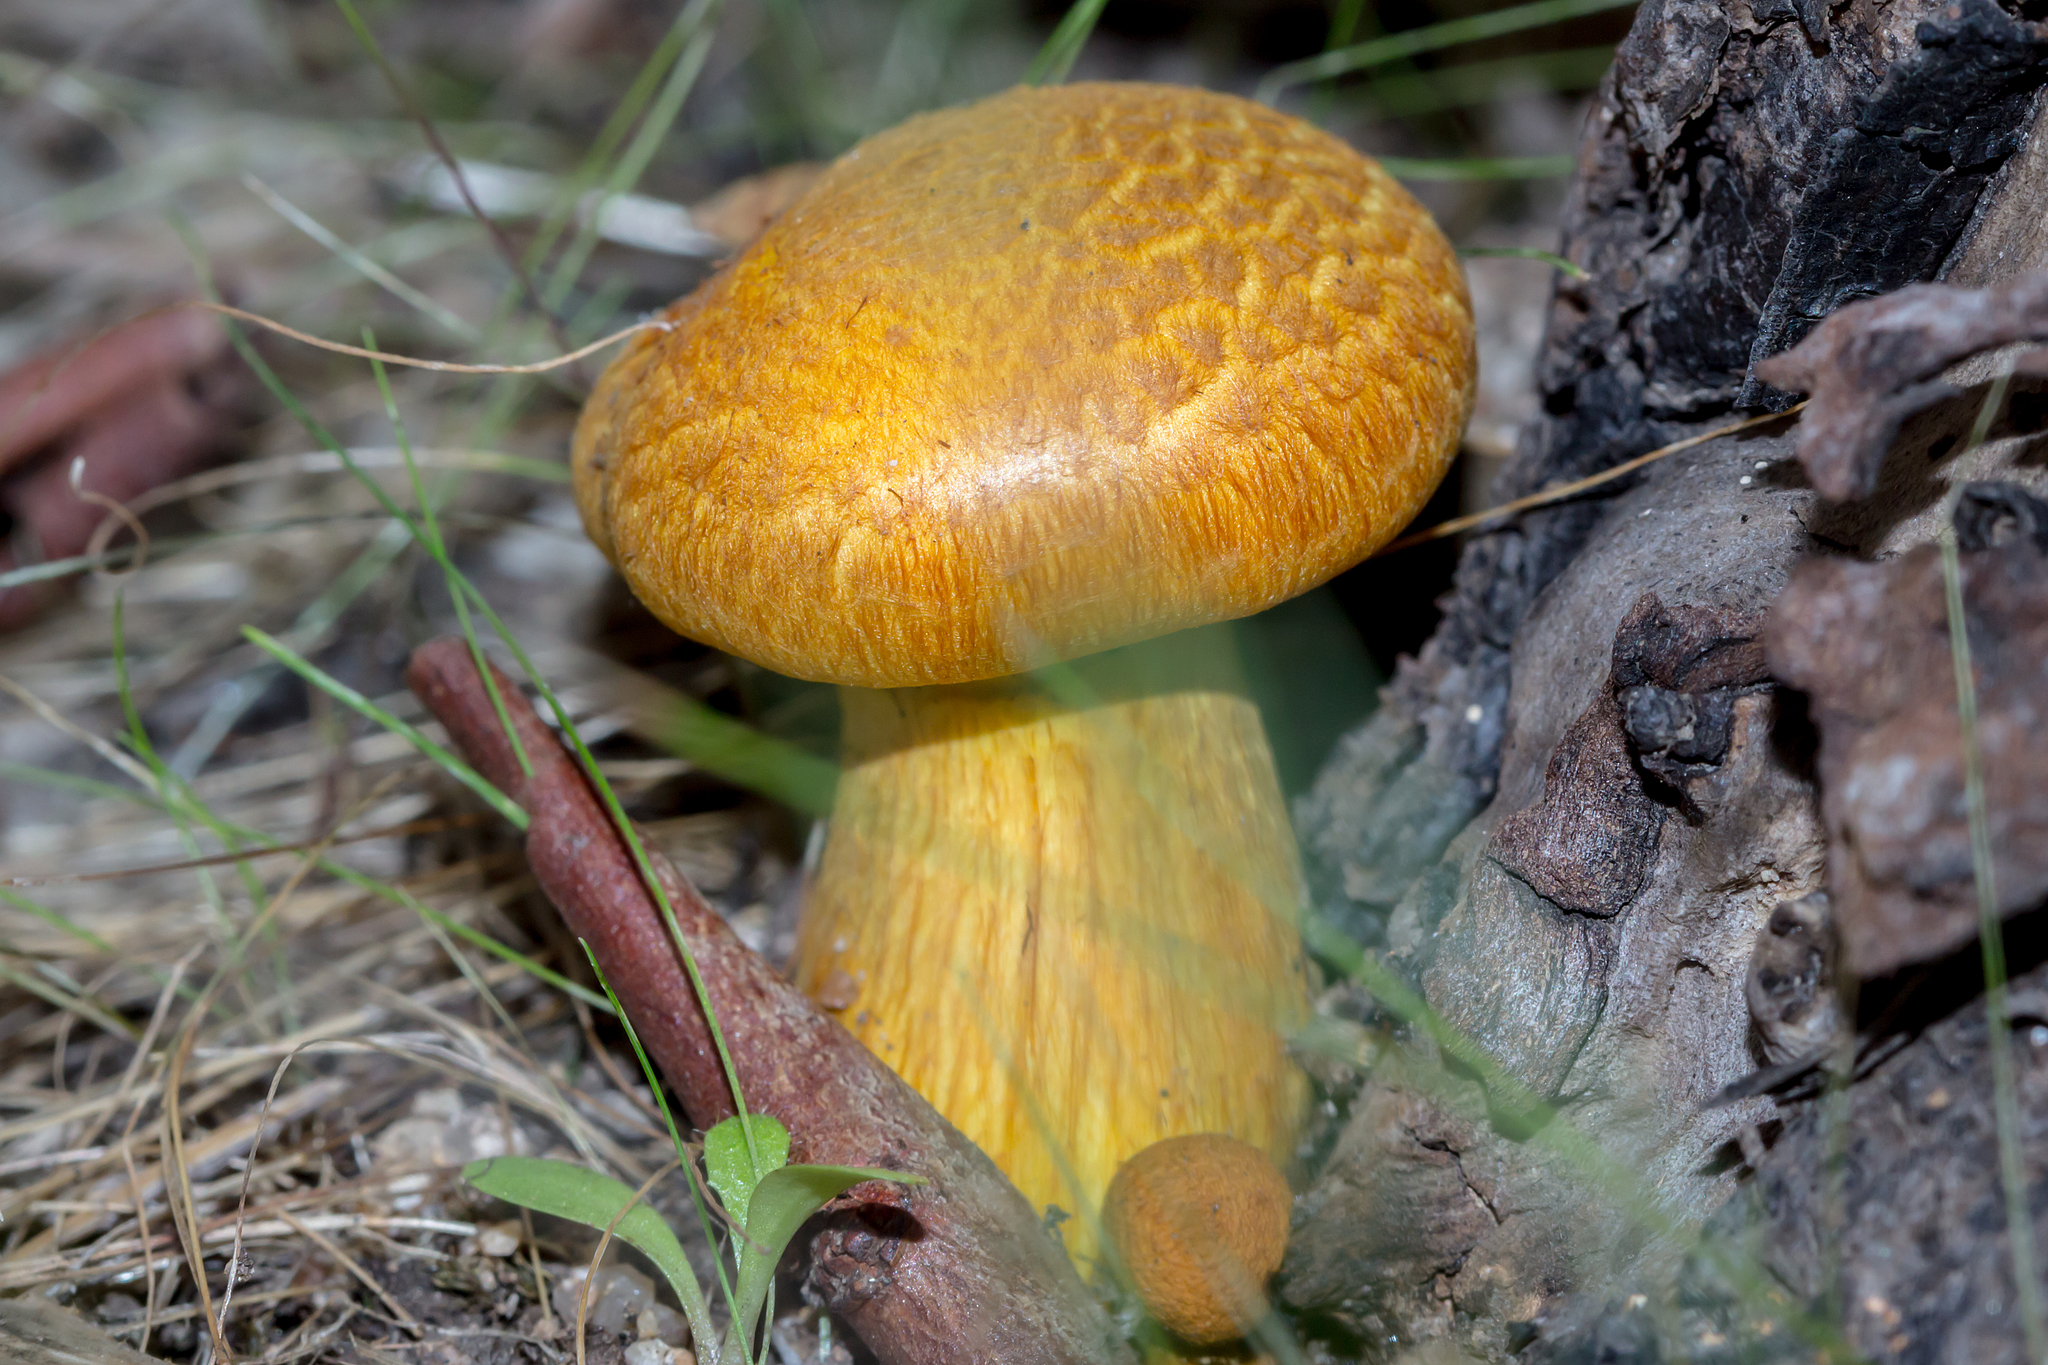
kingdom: Fungi
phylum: Basidiomycota
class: Agaricomycetes
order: Agaricales
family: Hymenogastraceae
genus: Gymnopilus
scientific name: Gymnopilus junonius
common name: Spectacular rustgill
